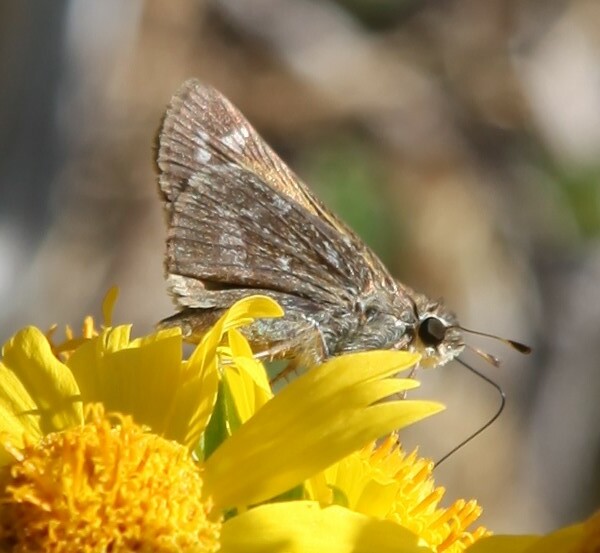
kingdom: Animalia
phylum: Arthropoda
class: Insecta
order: Lepidoptera
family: Hesperiidae
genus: Atalopedes
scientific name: Atalopedes
